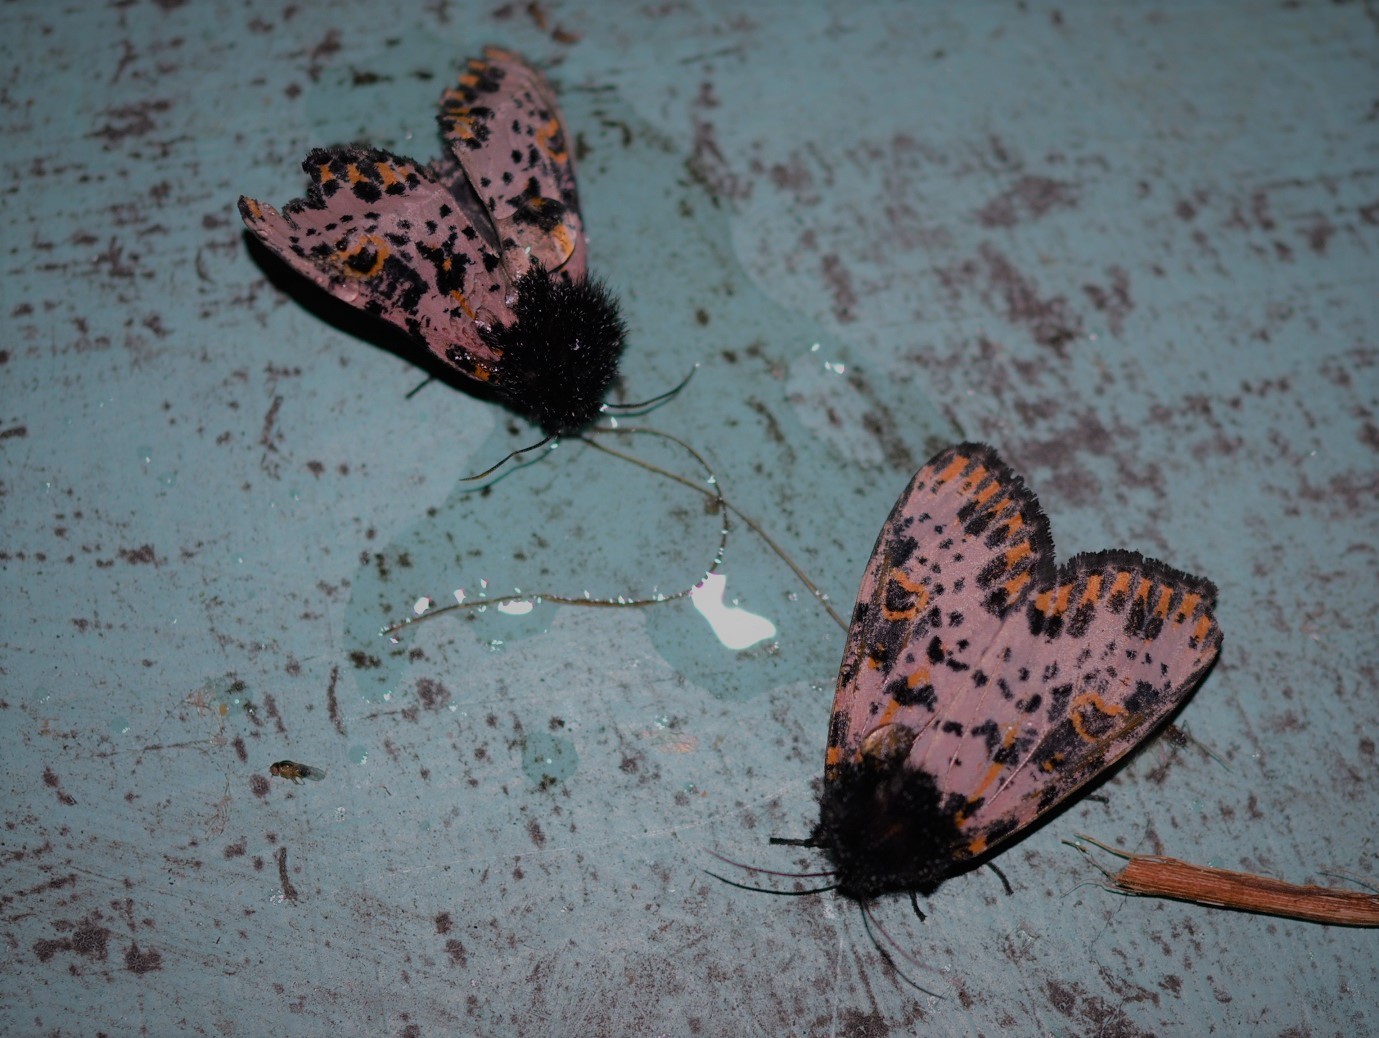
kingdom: Animalia
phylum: Arthropoda
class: Insecta
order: Lepidoptera
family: Noctuidae
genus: Xanthopastis
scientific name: Xanthopastis moctezuma
